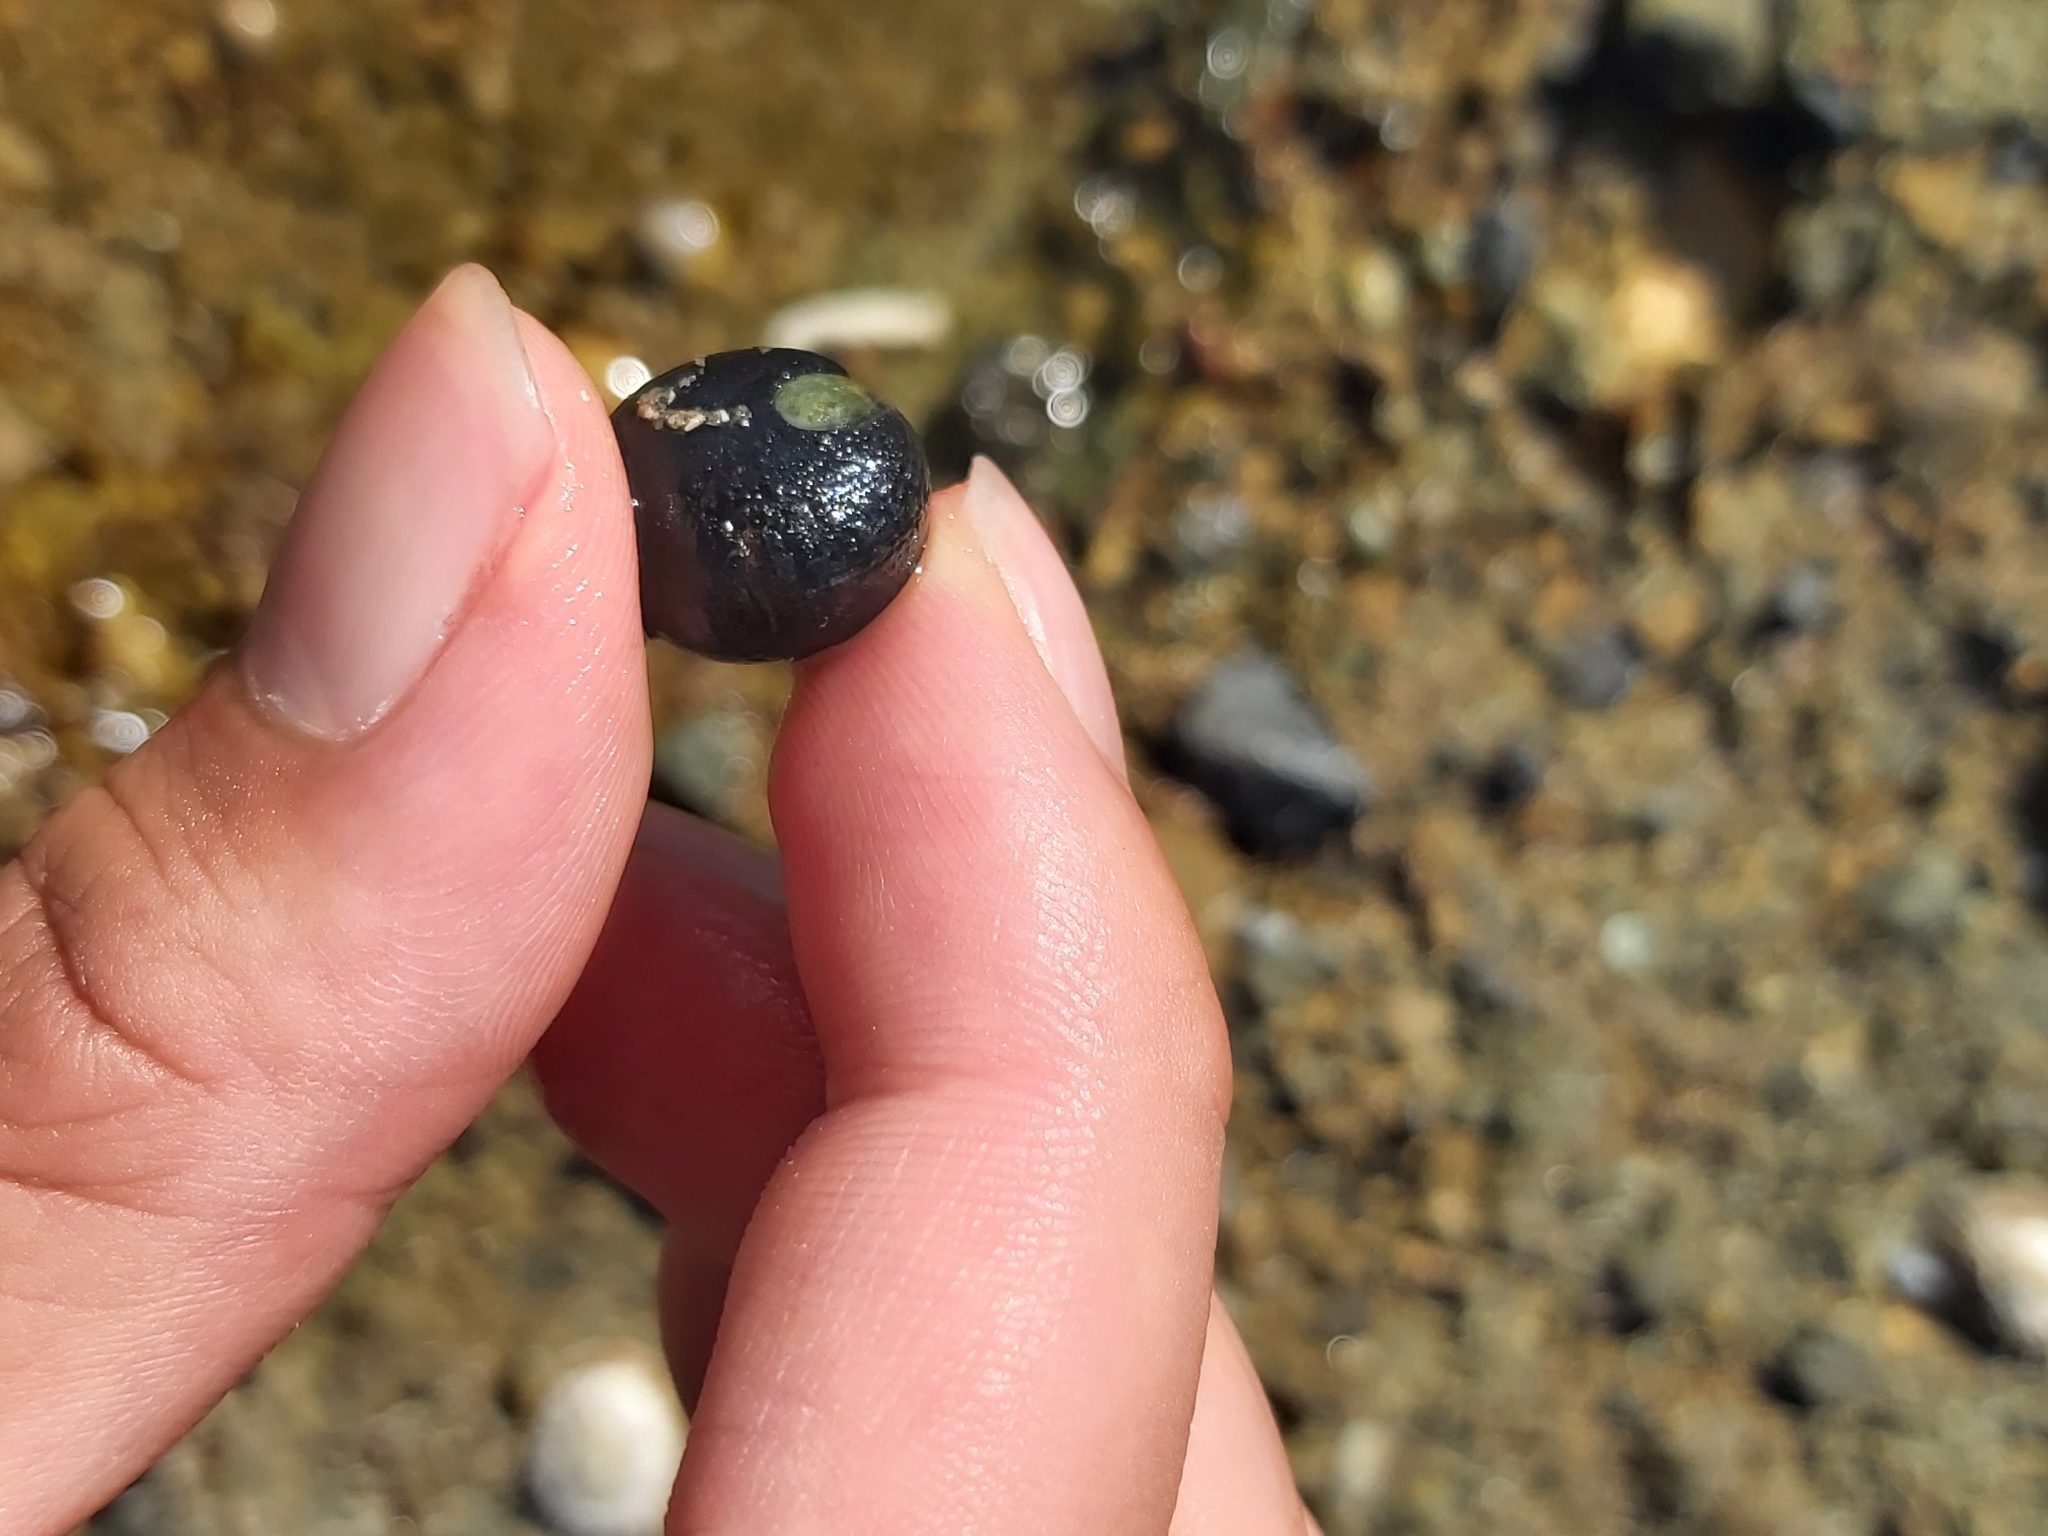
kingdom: Animalia
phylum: Mollusca
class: Gastropoda
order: Cycloneritida
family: Neritidae
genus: Nerita
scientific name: Nerita melanotragus
